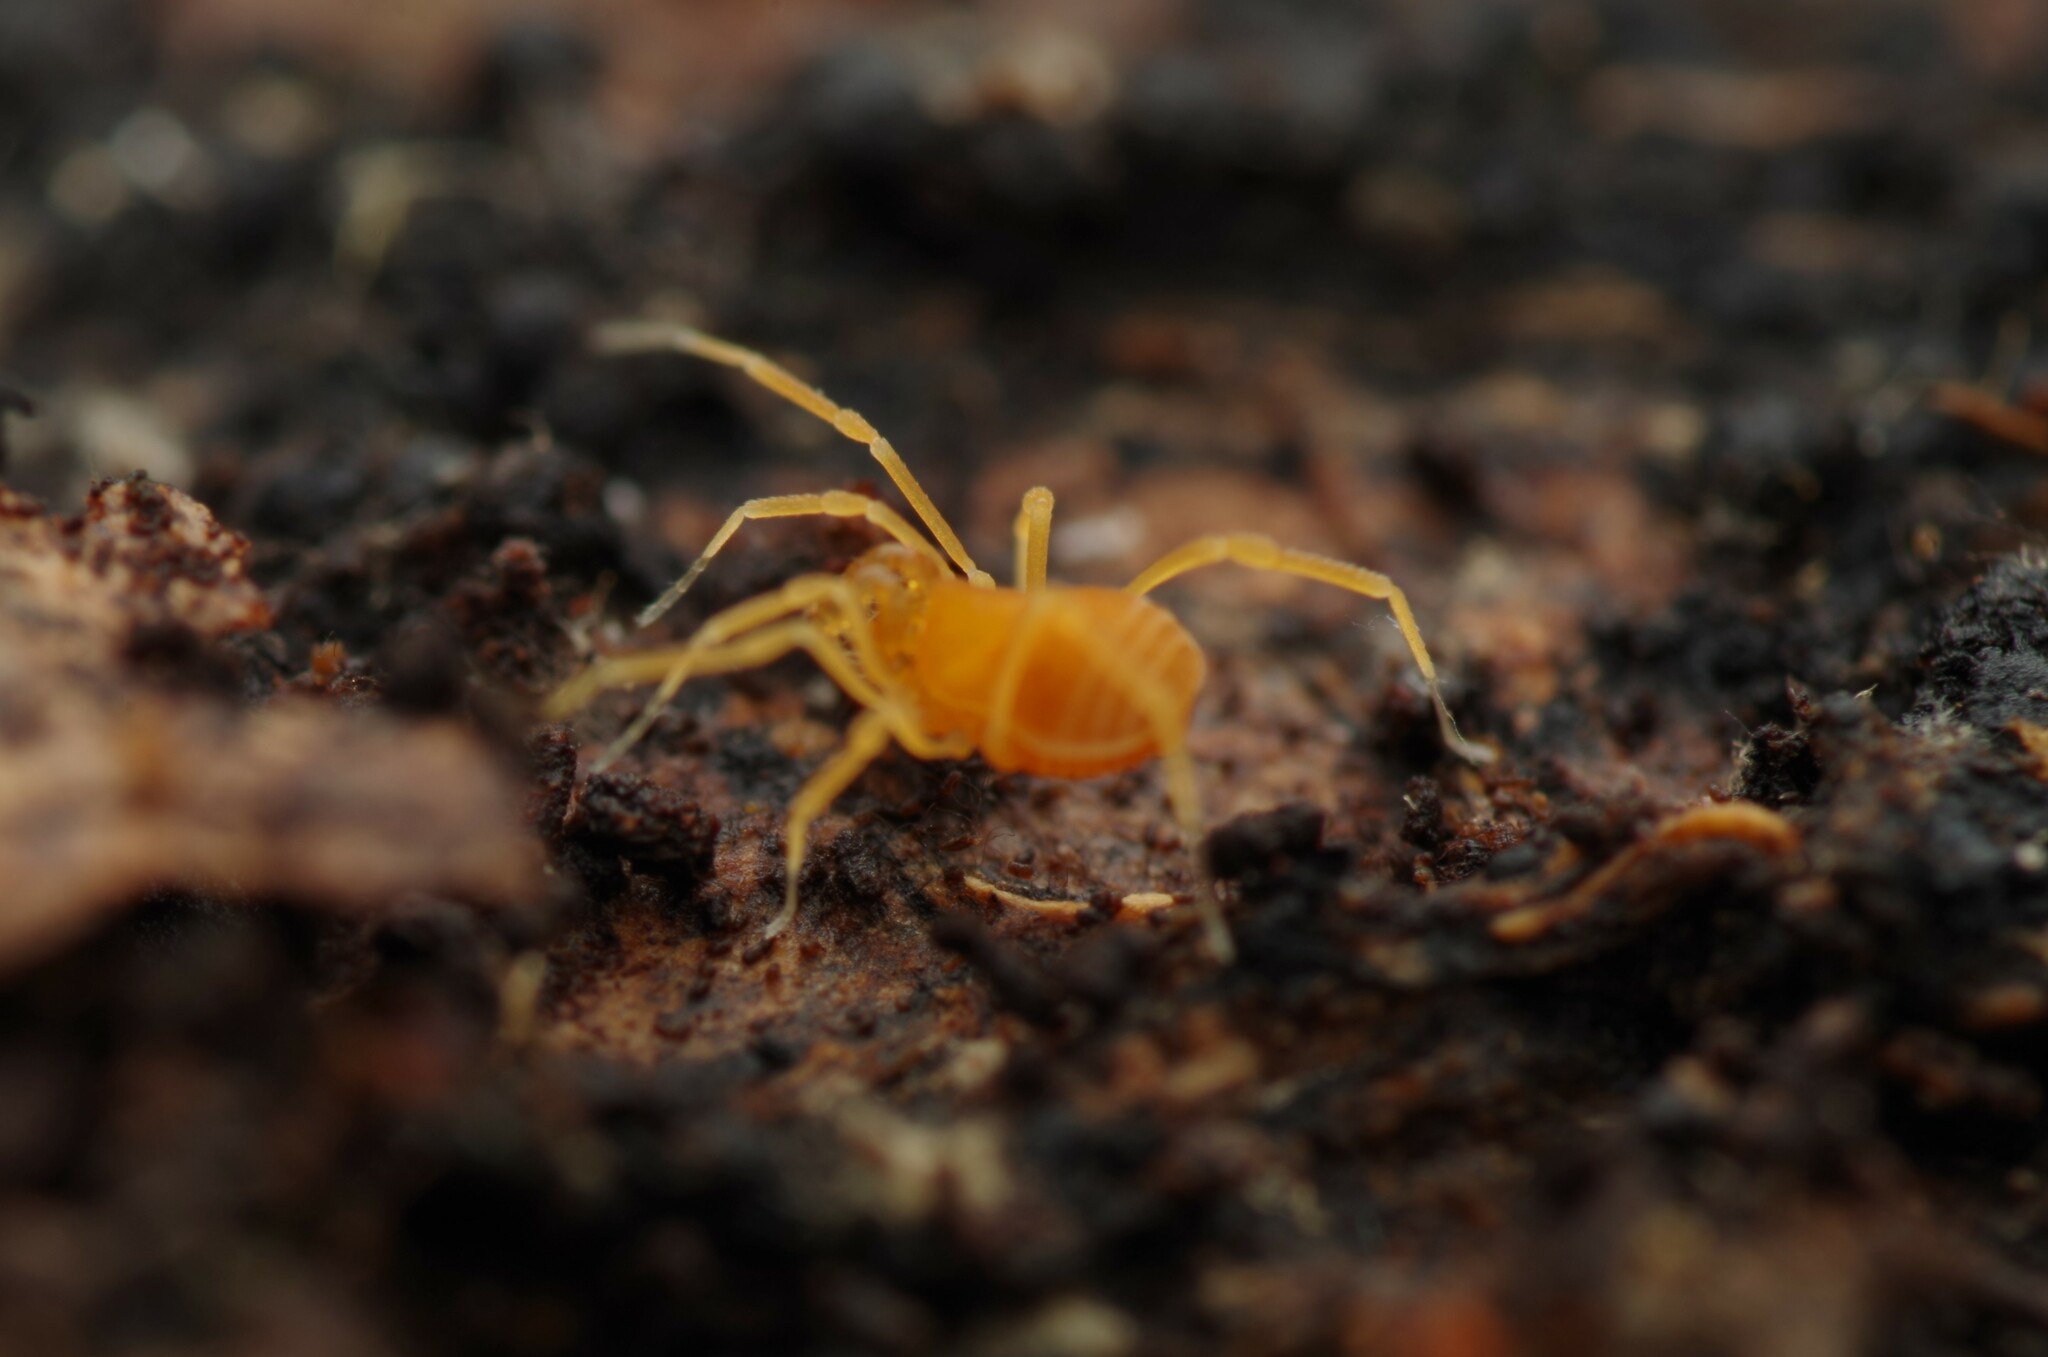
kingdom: Animalia
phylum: Arthropoda
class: Arachnida
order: Opiliones
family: Phalangodidae
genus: Scotolemon
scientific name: Scotolemon doriae
